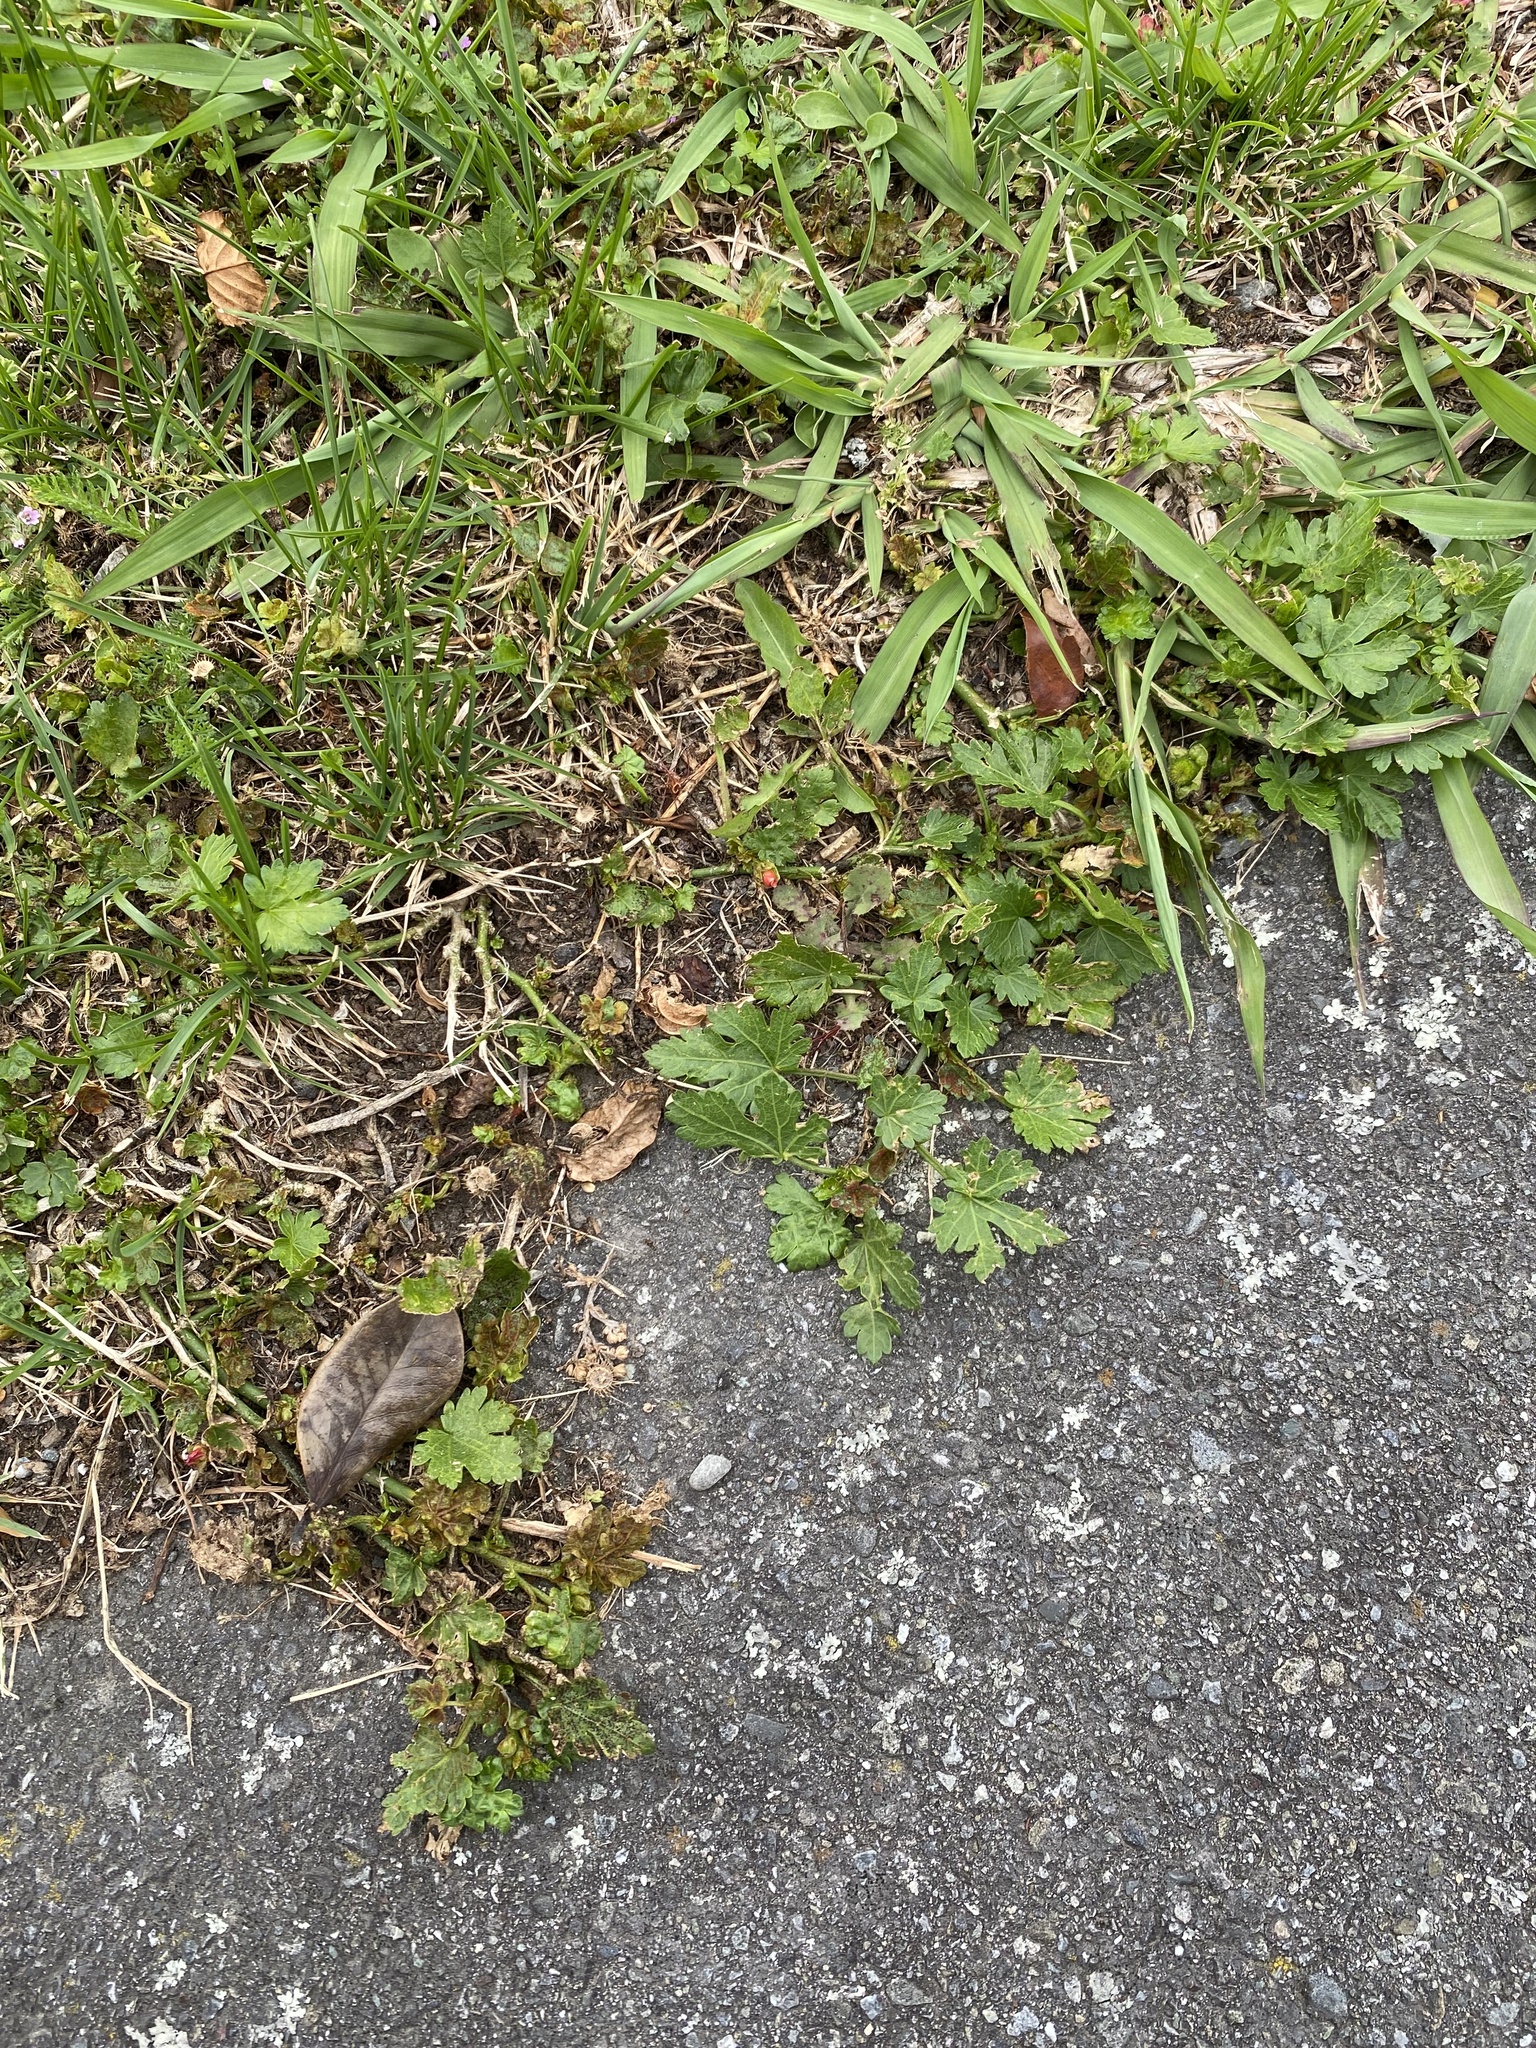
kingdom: Plantae
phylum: Tracheophyta
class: Magnoliopsida
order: Malvales
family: Malvaceae
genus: Modiola
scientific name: Modiola caroliniana
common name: Carolina bristlemallow
